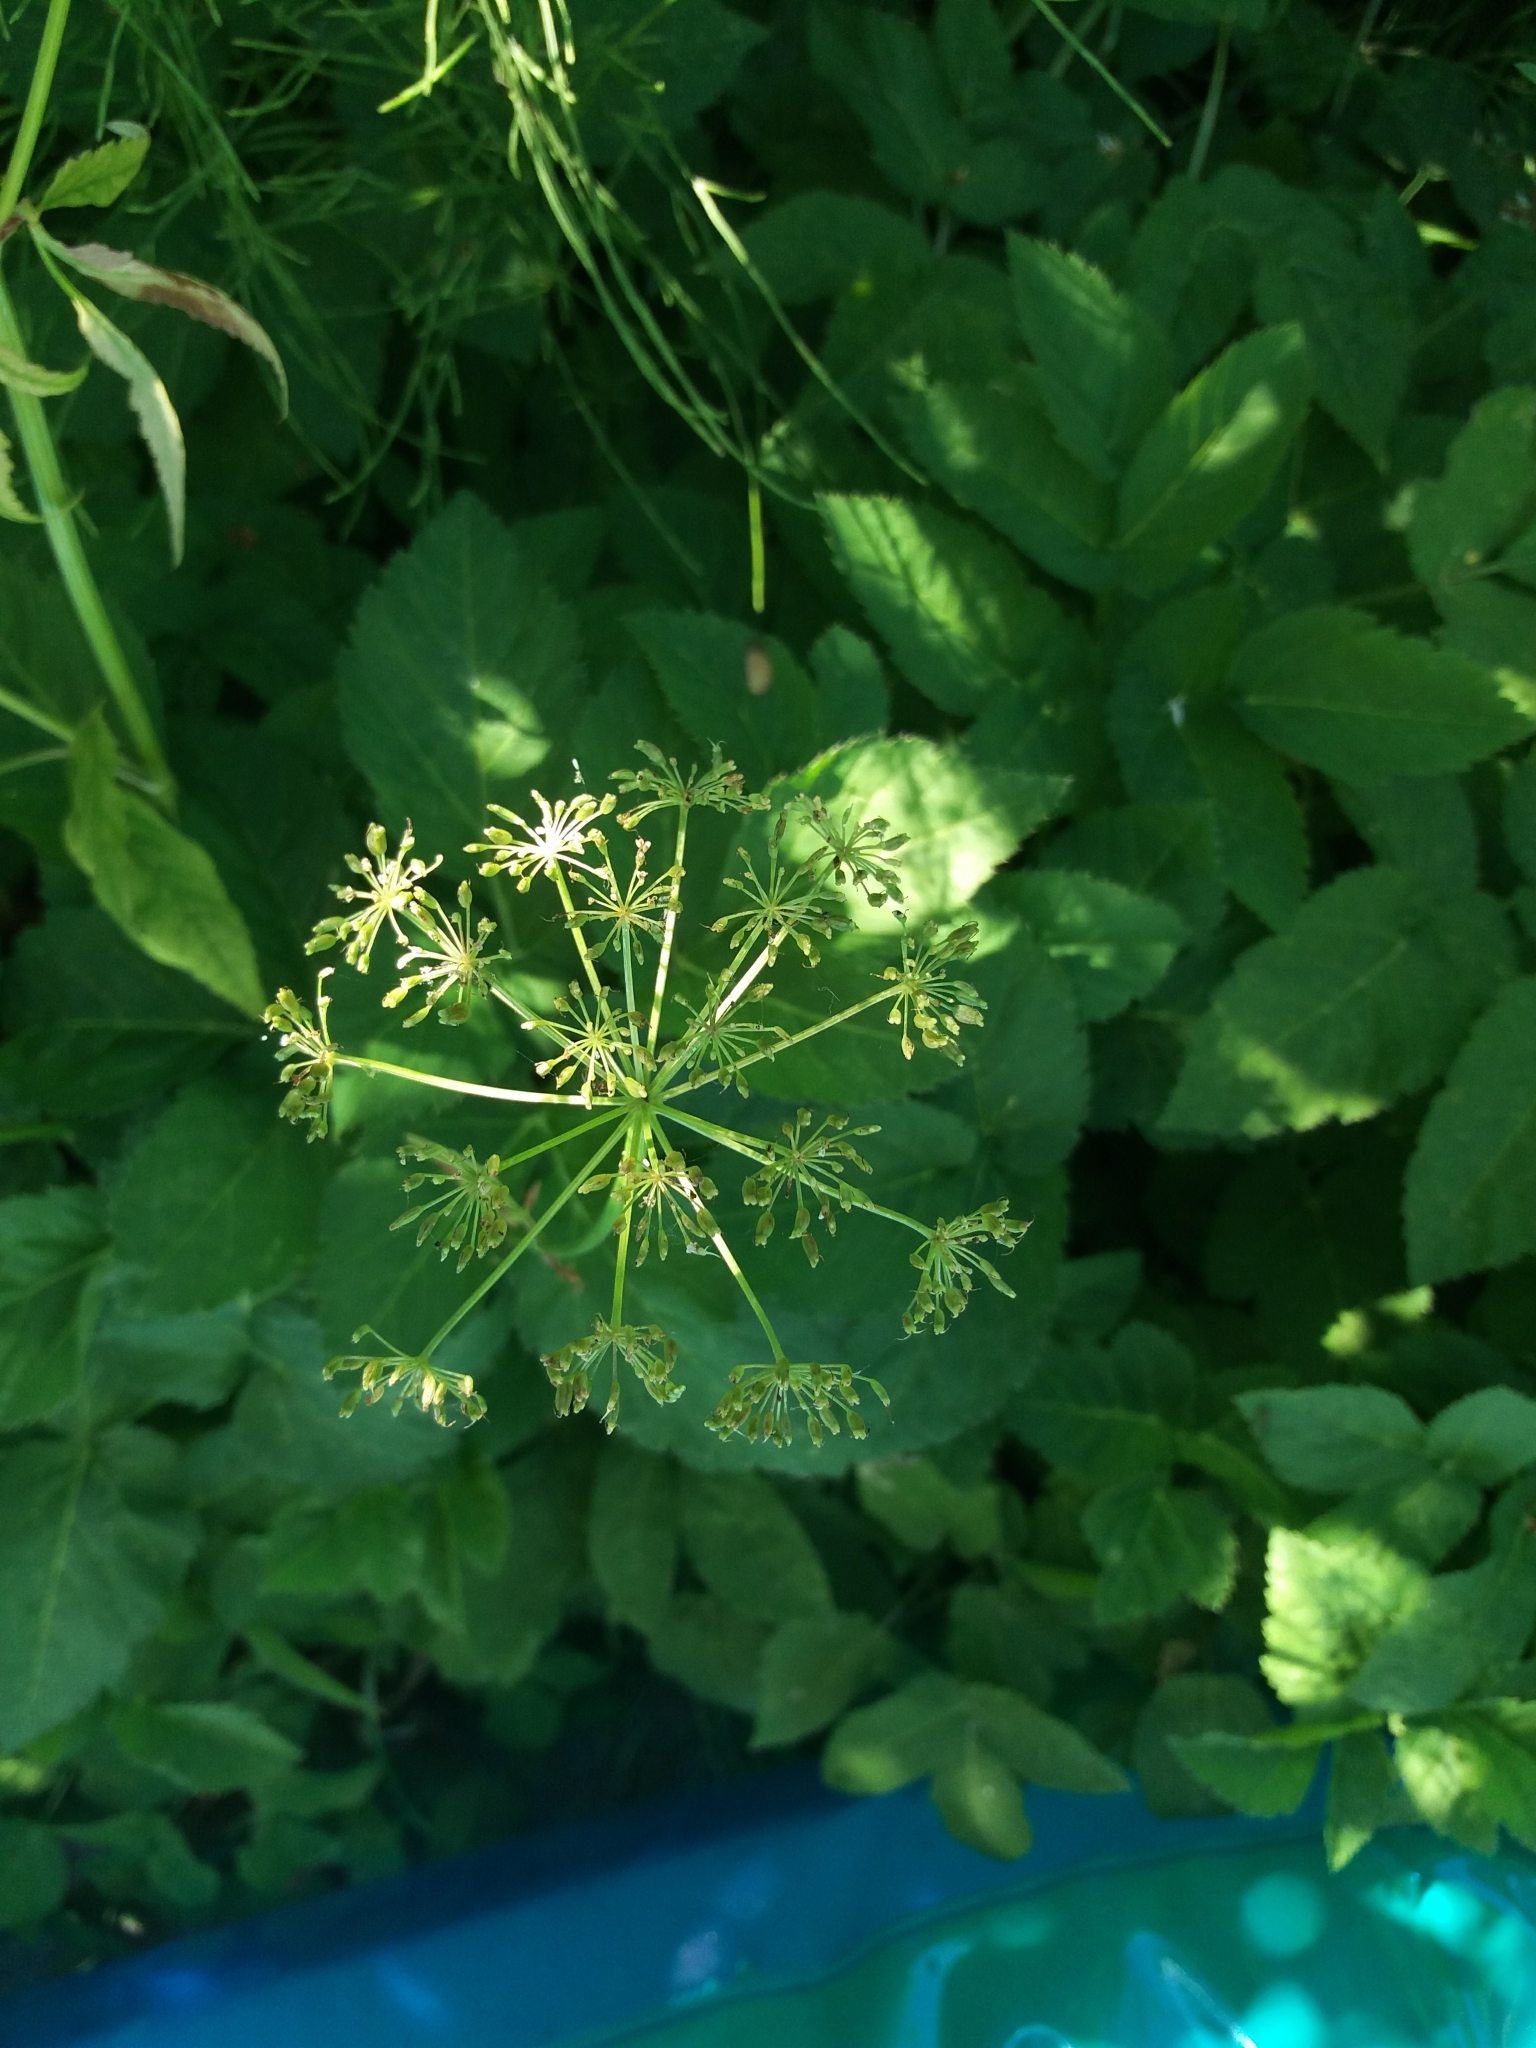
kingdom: Plantae
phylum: Tracheophyta
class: Magnoliopsida
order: Apiales
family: Apiaceae
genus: Aegopodium
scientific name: Aegopodium podagraria
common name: Ground-elder
